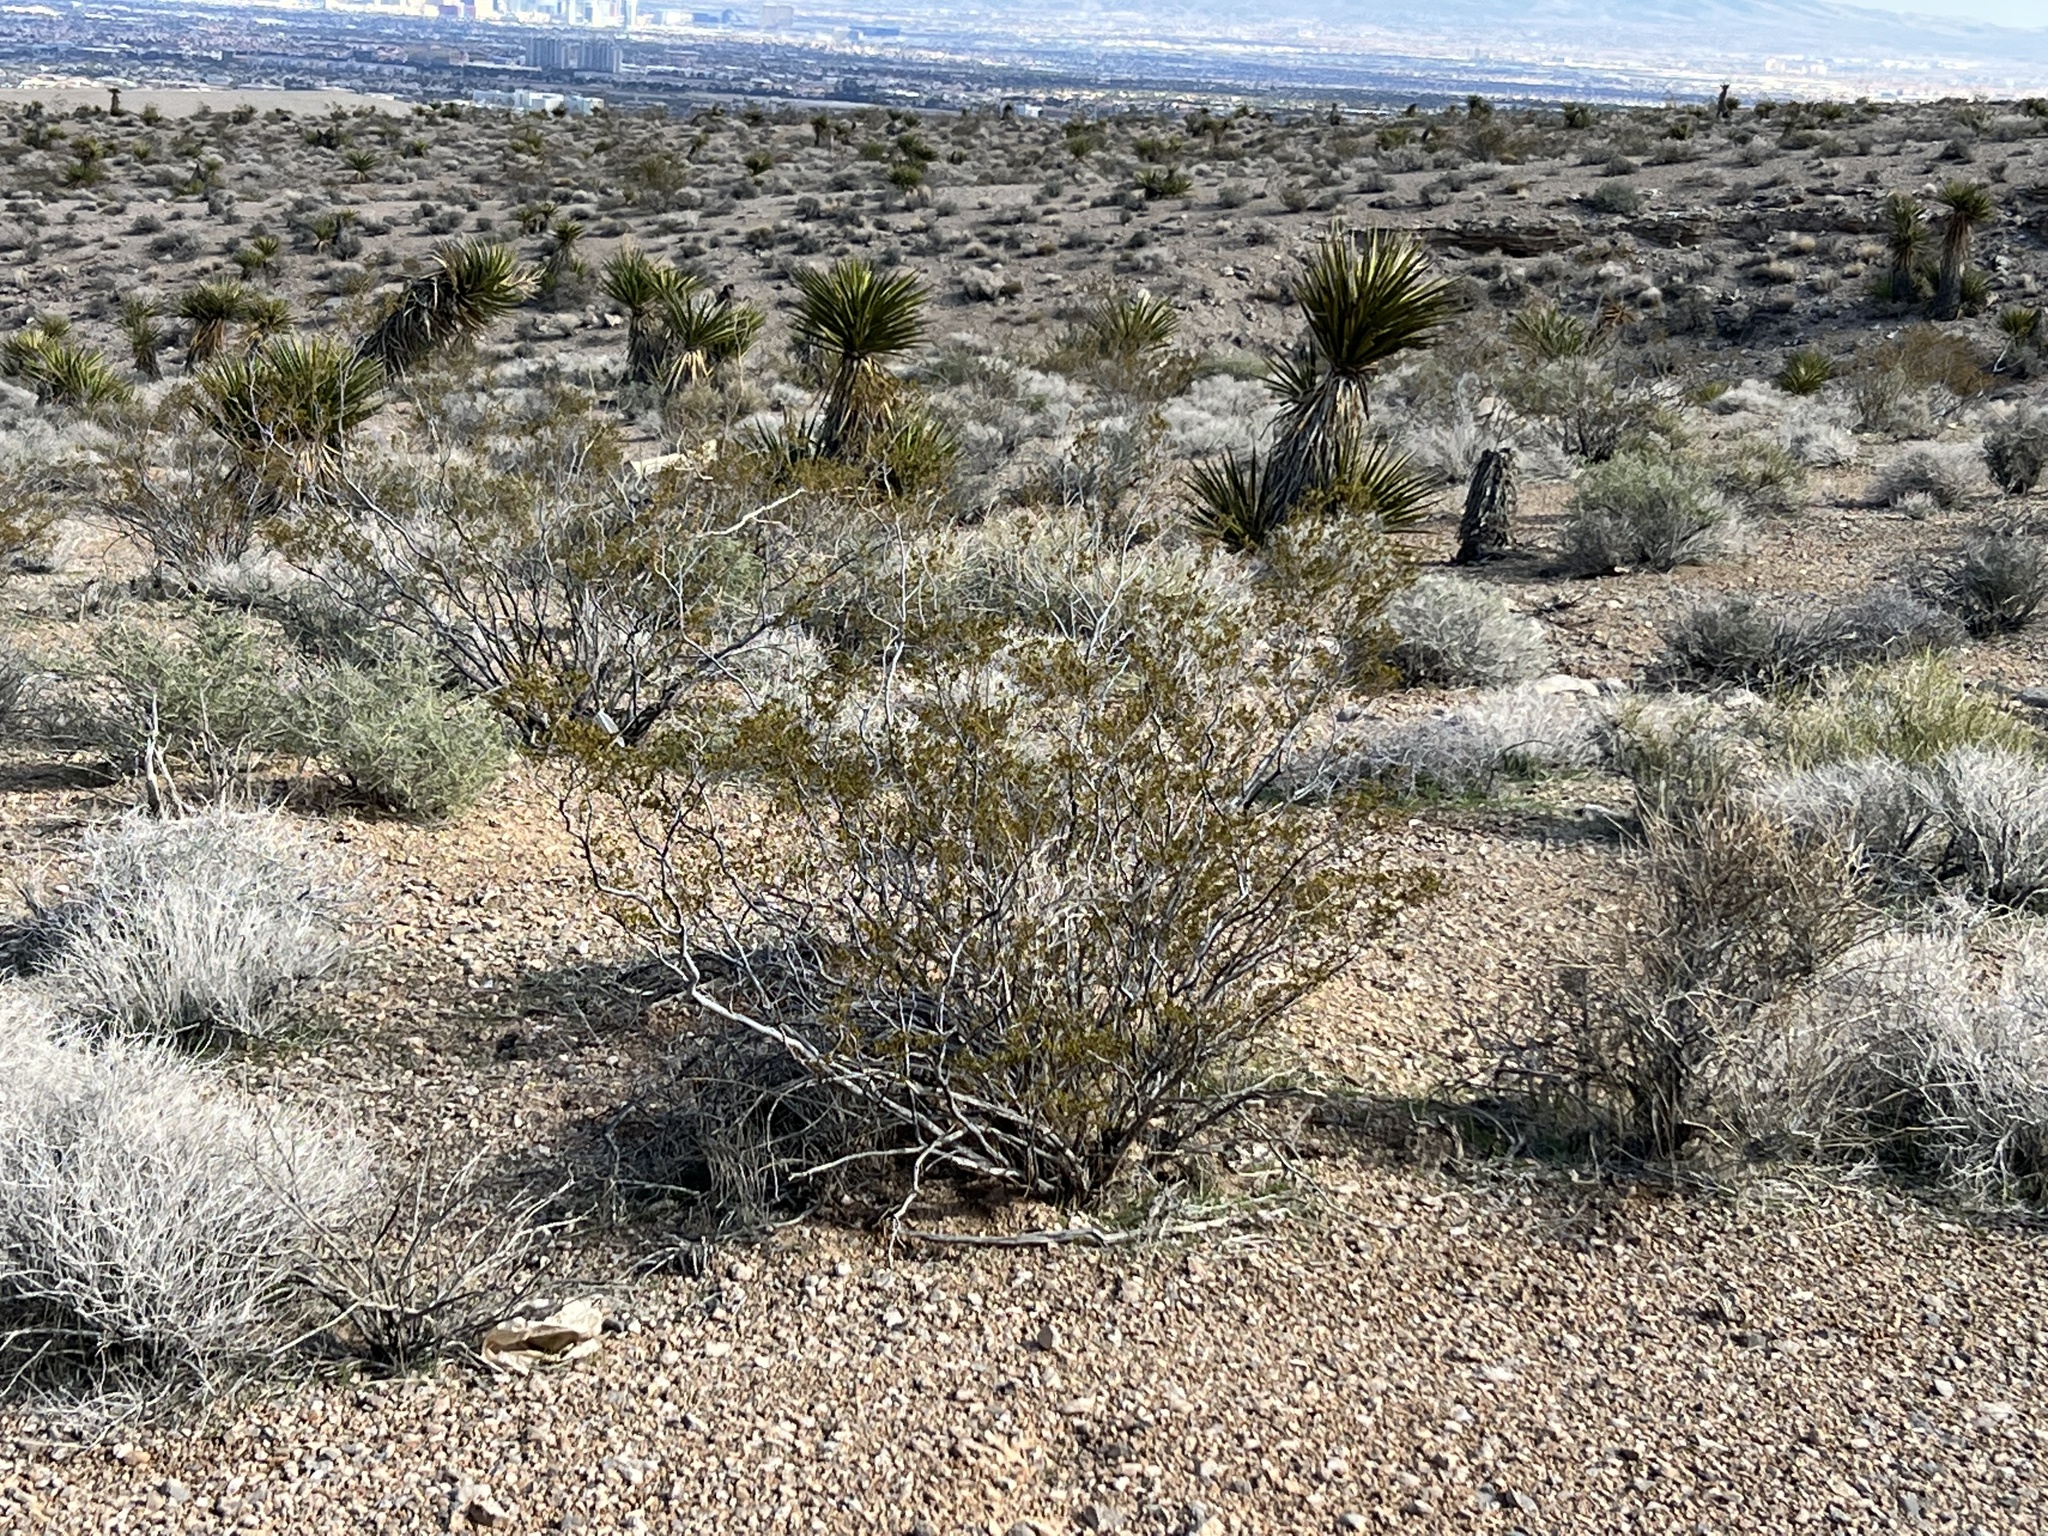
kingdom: Plantae
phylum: Tracheophyta
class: Magnoliopsida
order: Zygophyllales
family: Zygophyllaceae
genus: Larrea
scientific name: Larrea tridentata
